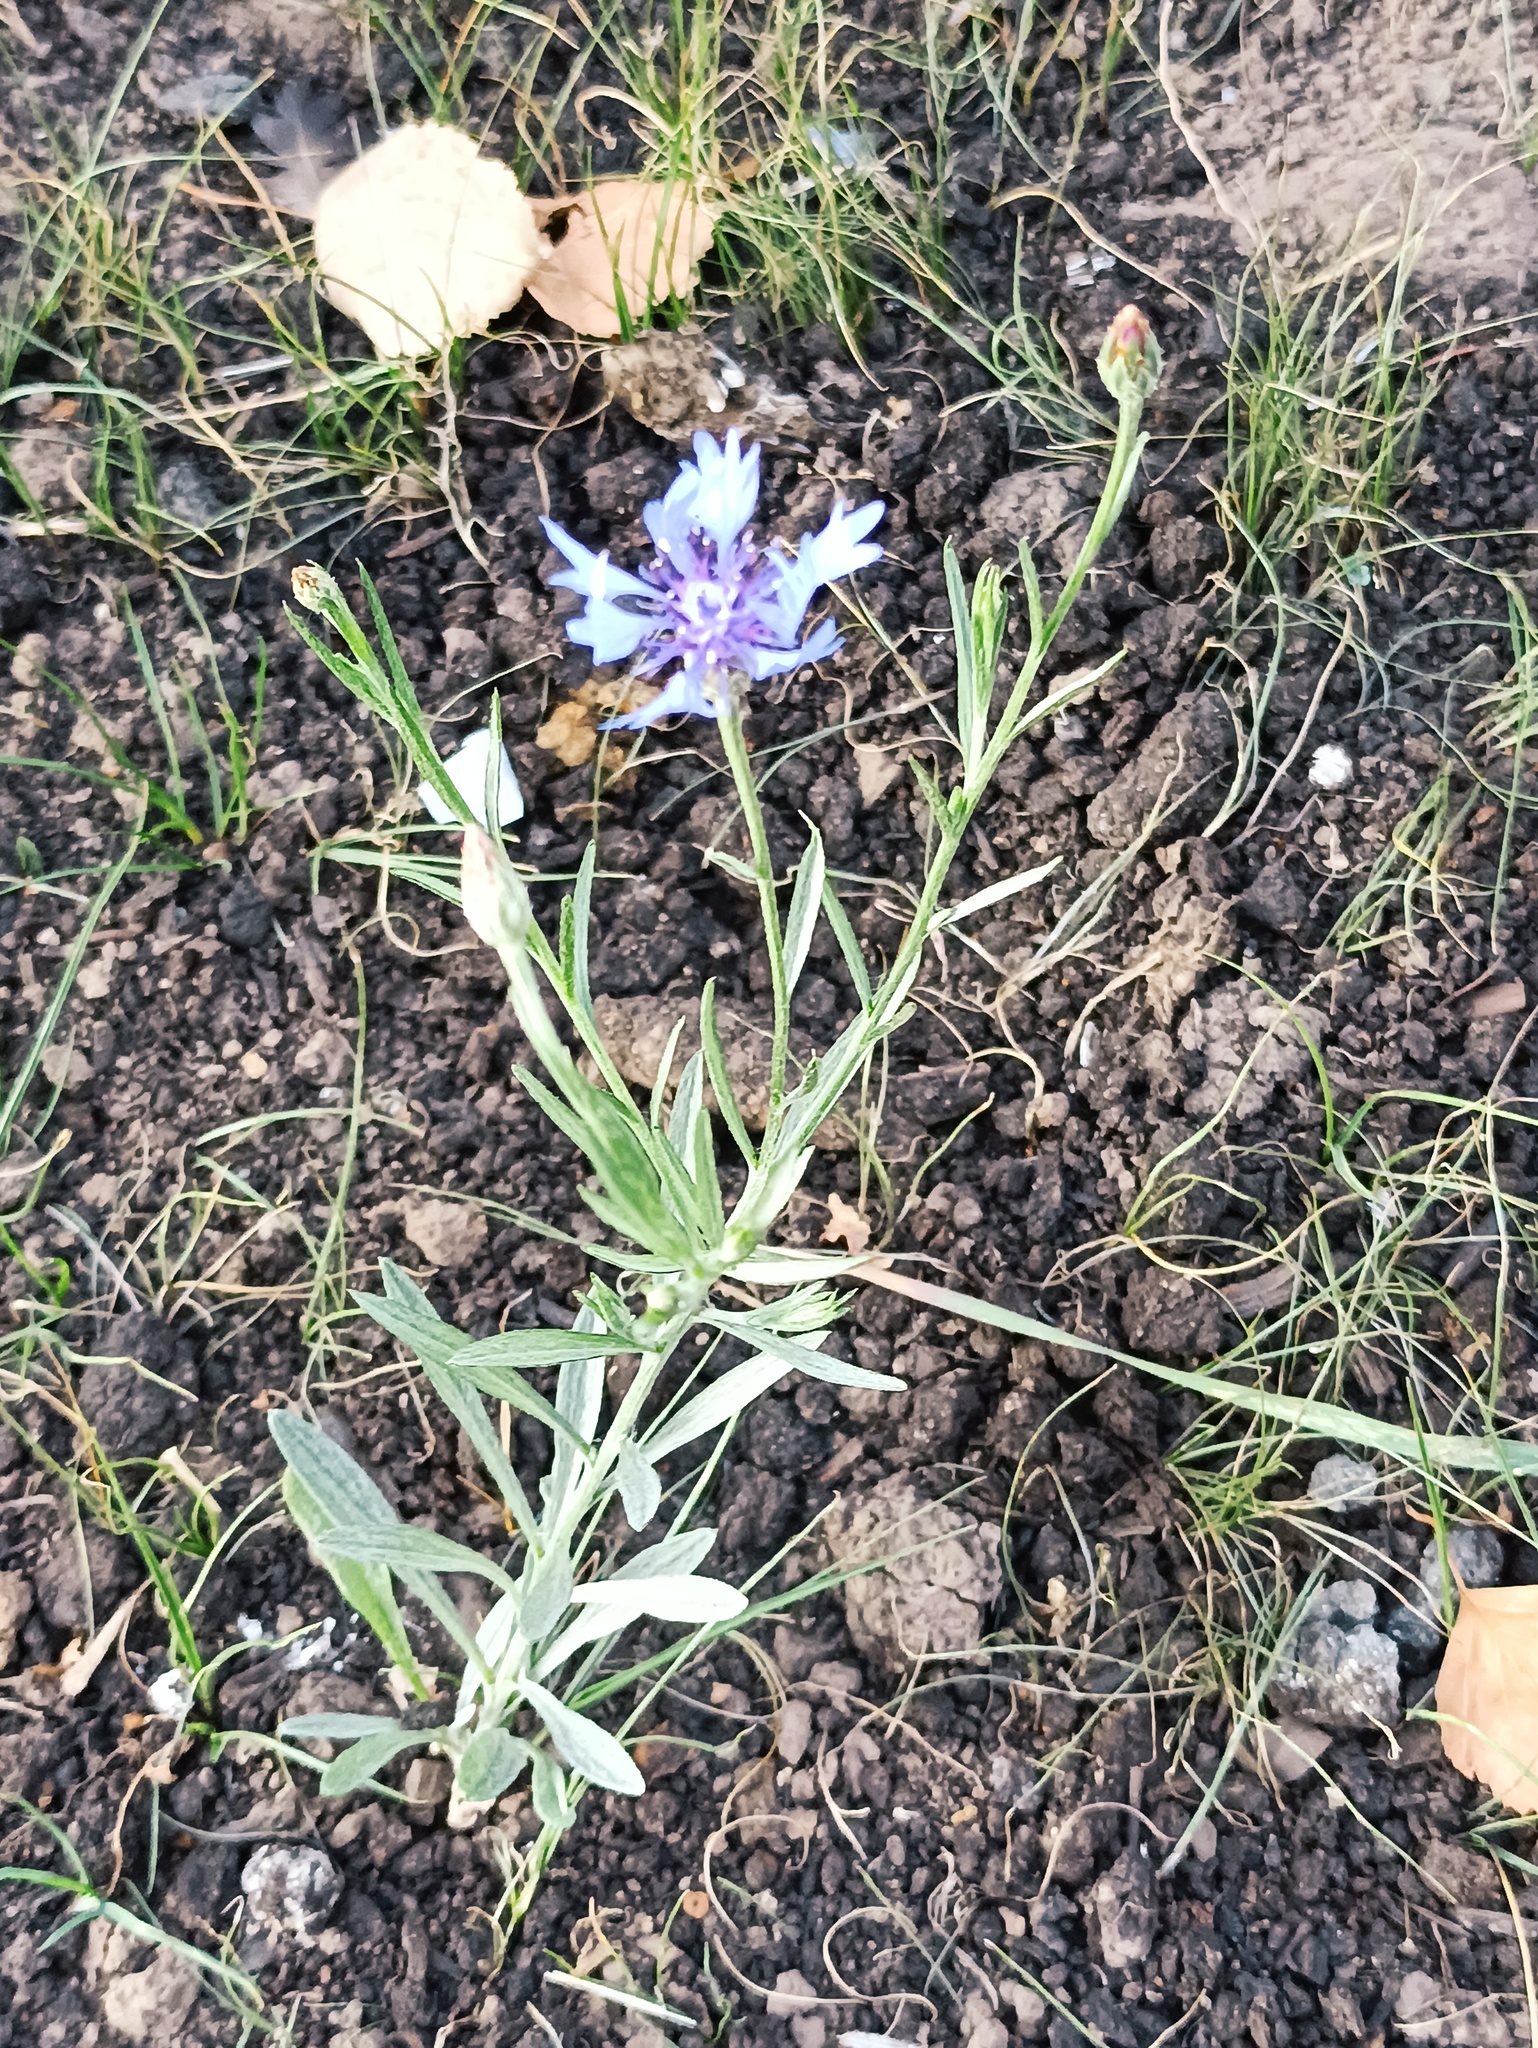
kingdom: Plantae
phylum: Tracheophyta
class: Magnoliopsida
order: Asterales
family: Asteraceae
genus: Centaurea
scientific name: Centaurea cyanus
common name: Cornflower
